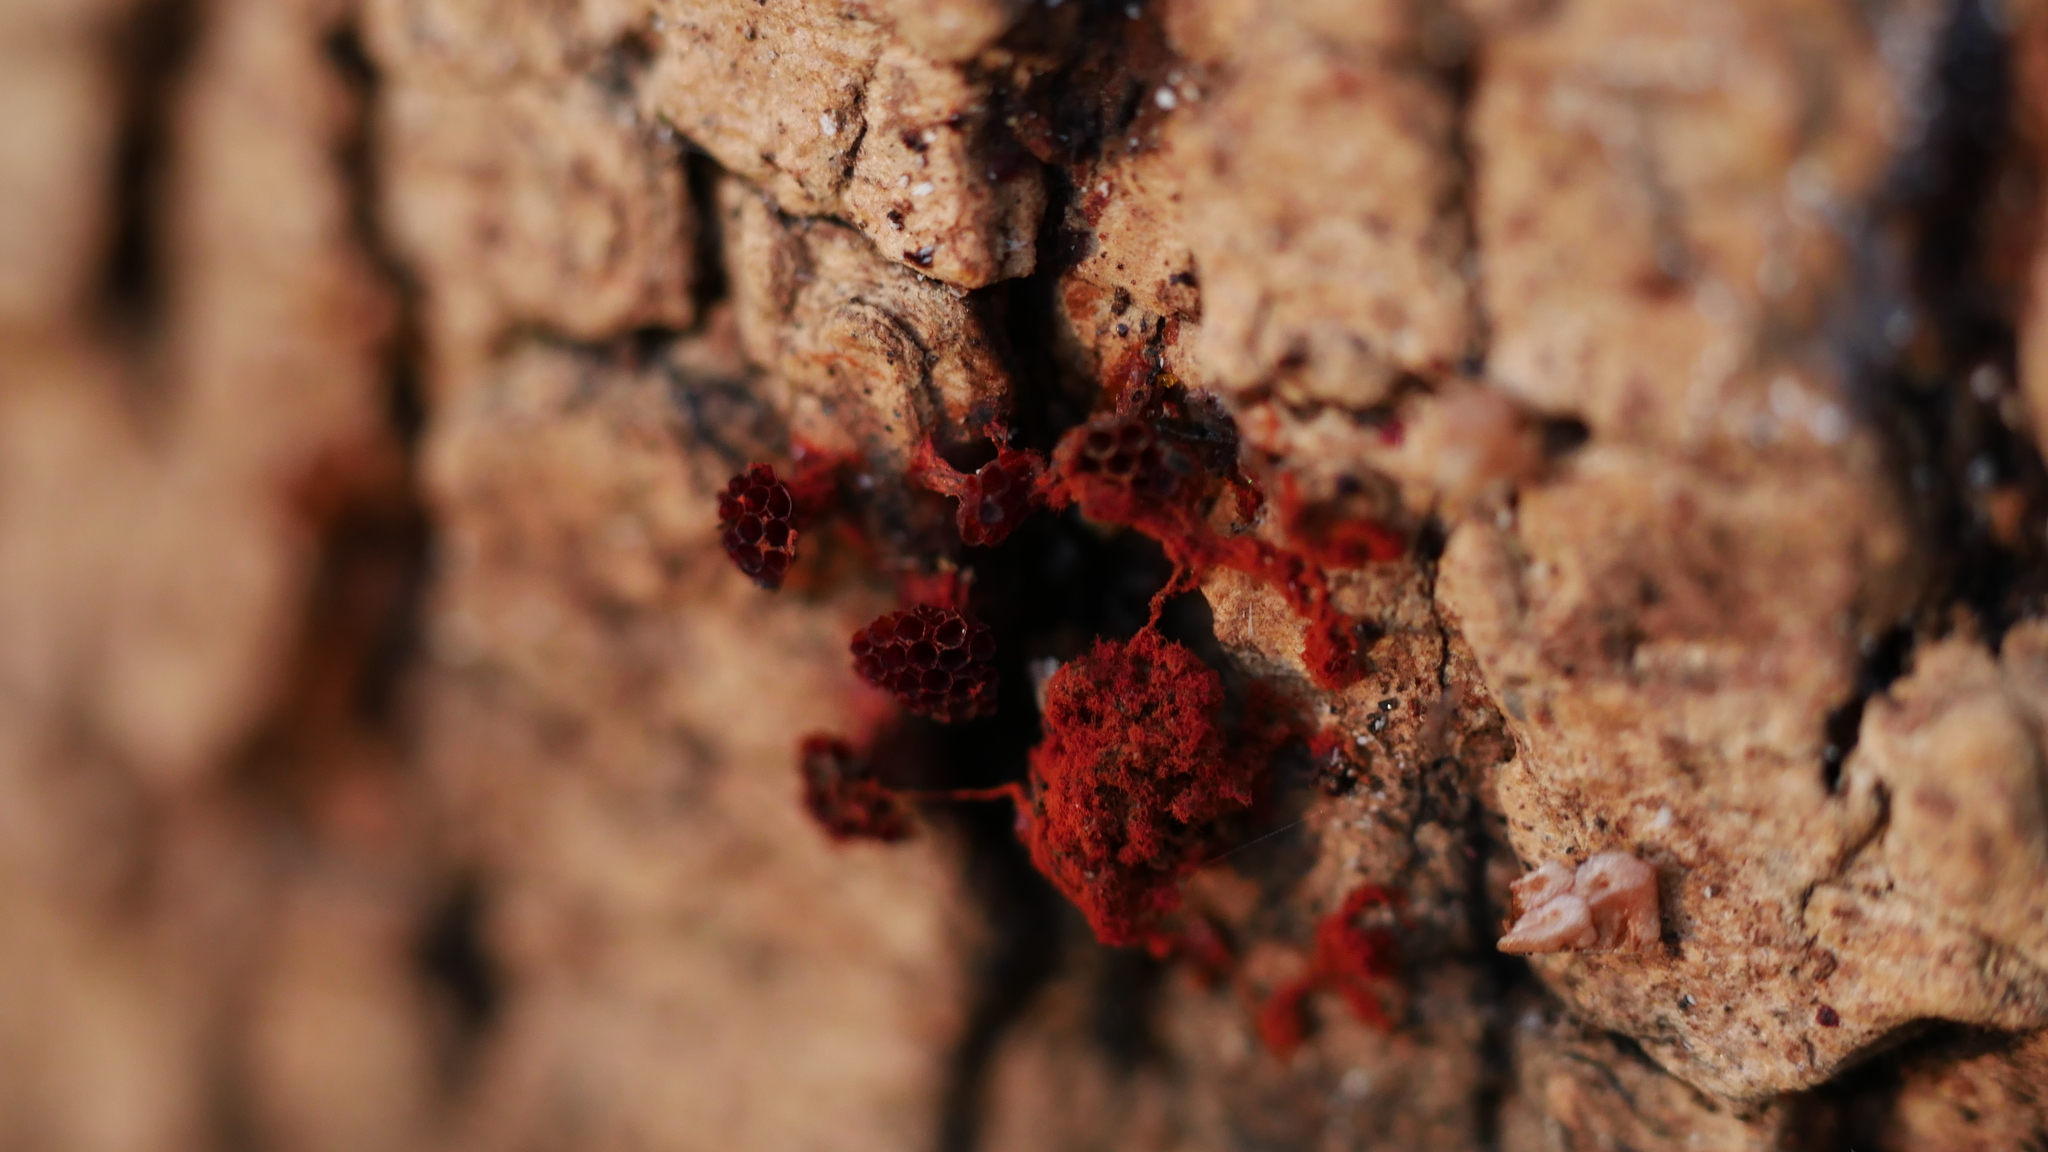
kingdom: Protozoa
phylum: Mycetozoa
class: Myxomycetes
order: Trichiales
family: Trichiaceae
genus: Metatrichia
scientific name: Metatrichia vesparia
